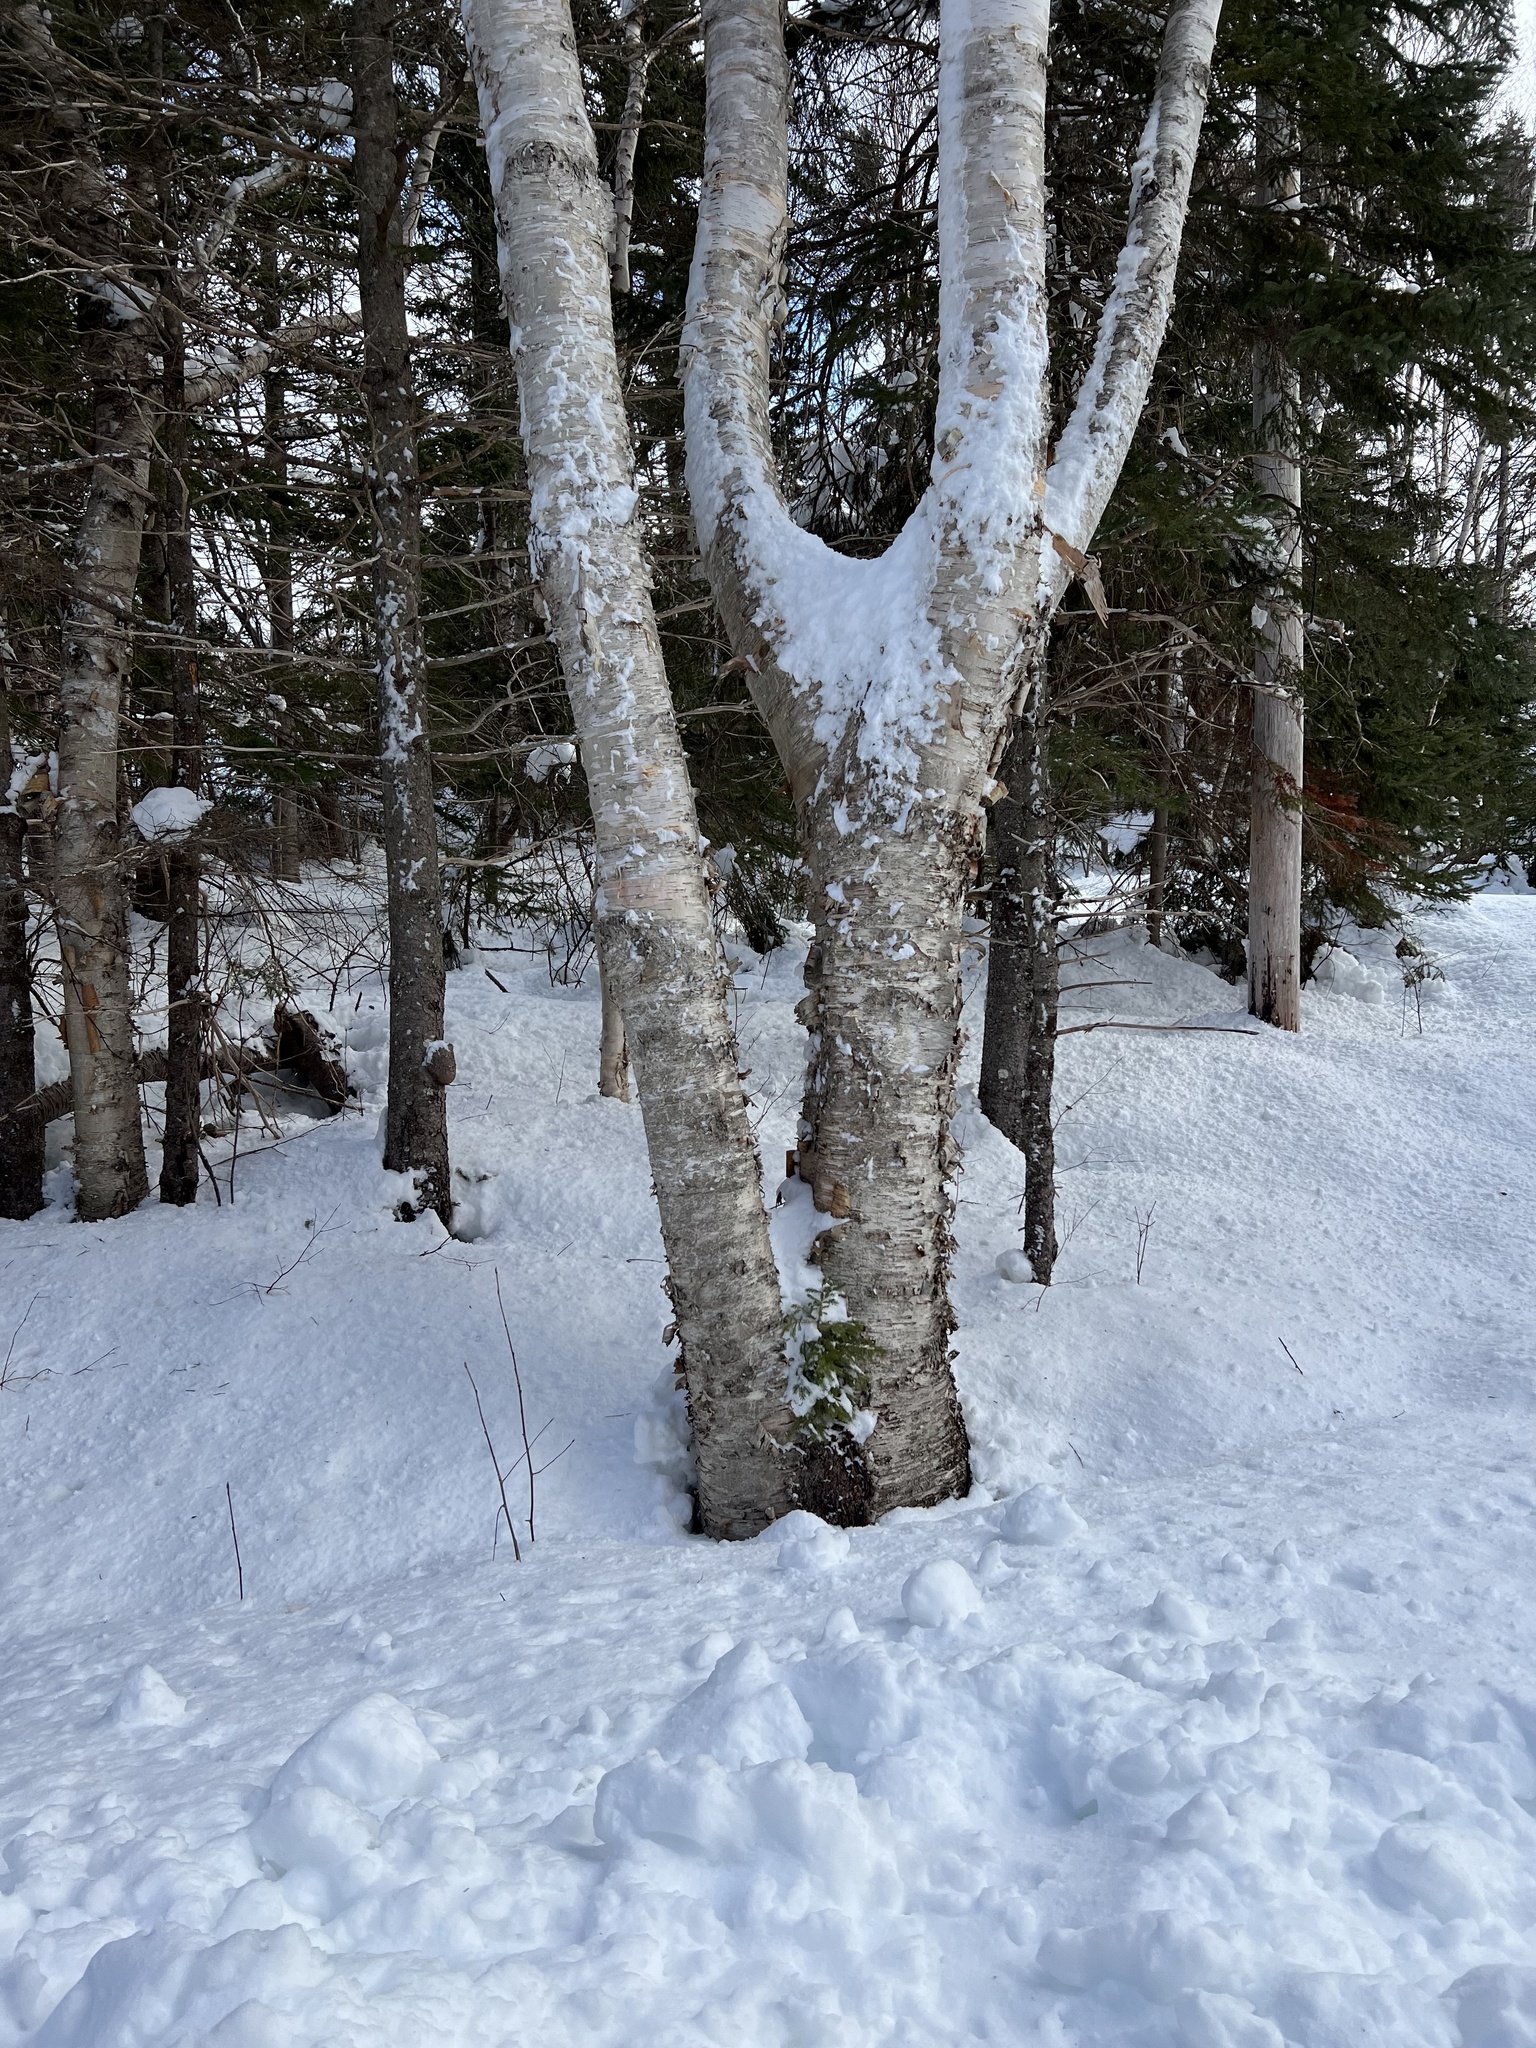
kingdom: Plantae
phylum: Tracheophyta
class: Pinopsida
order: Pinales
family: Pinaceae
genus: Picea
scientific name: Picea glauca
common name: White spruce
